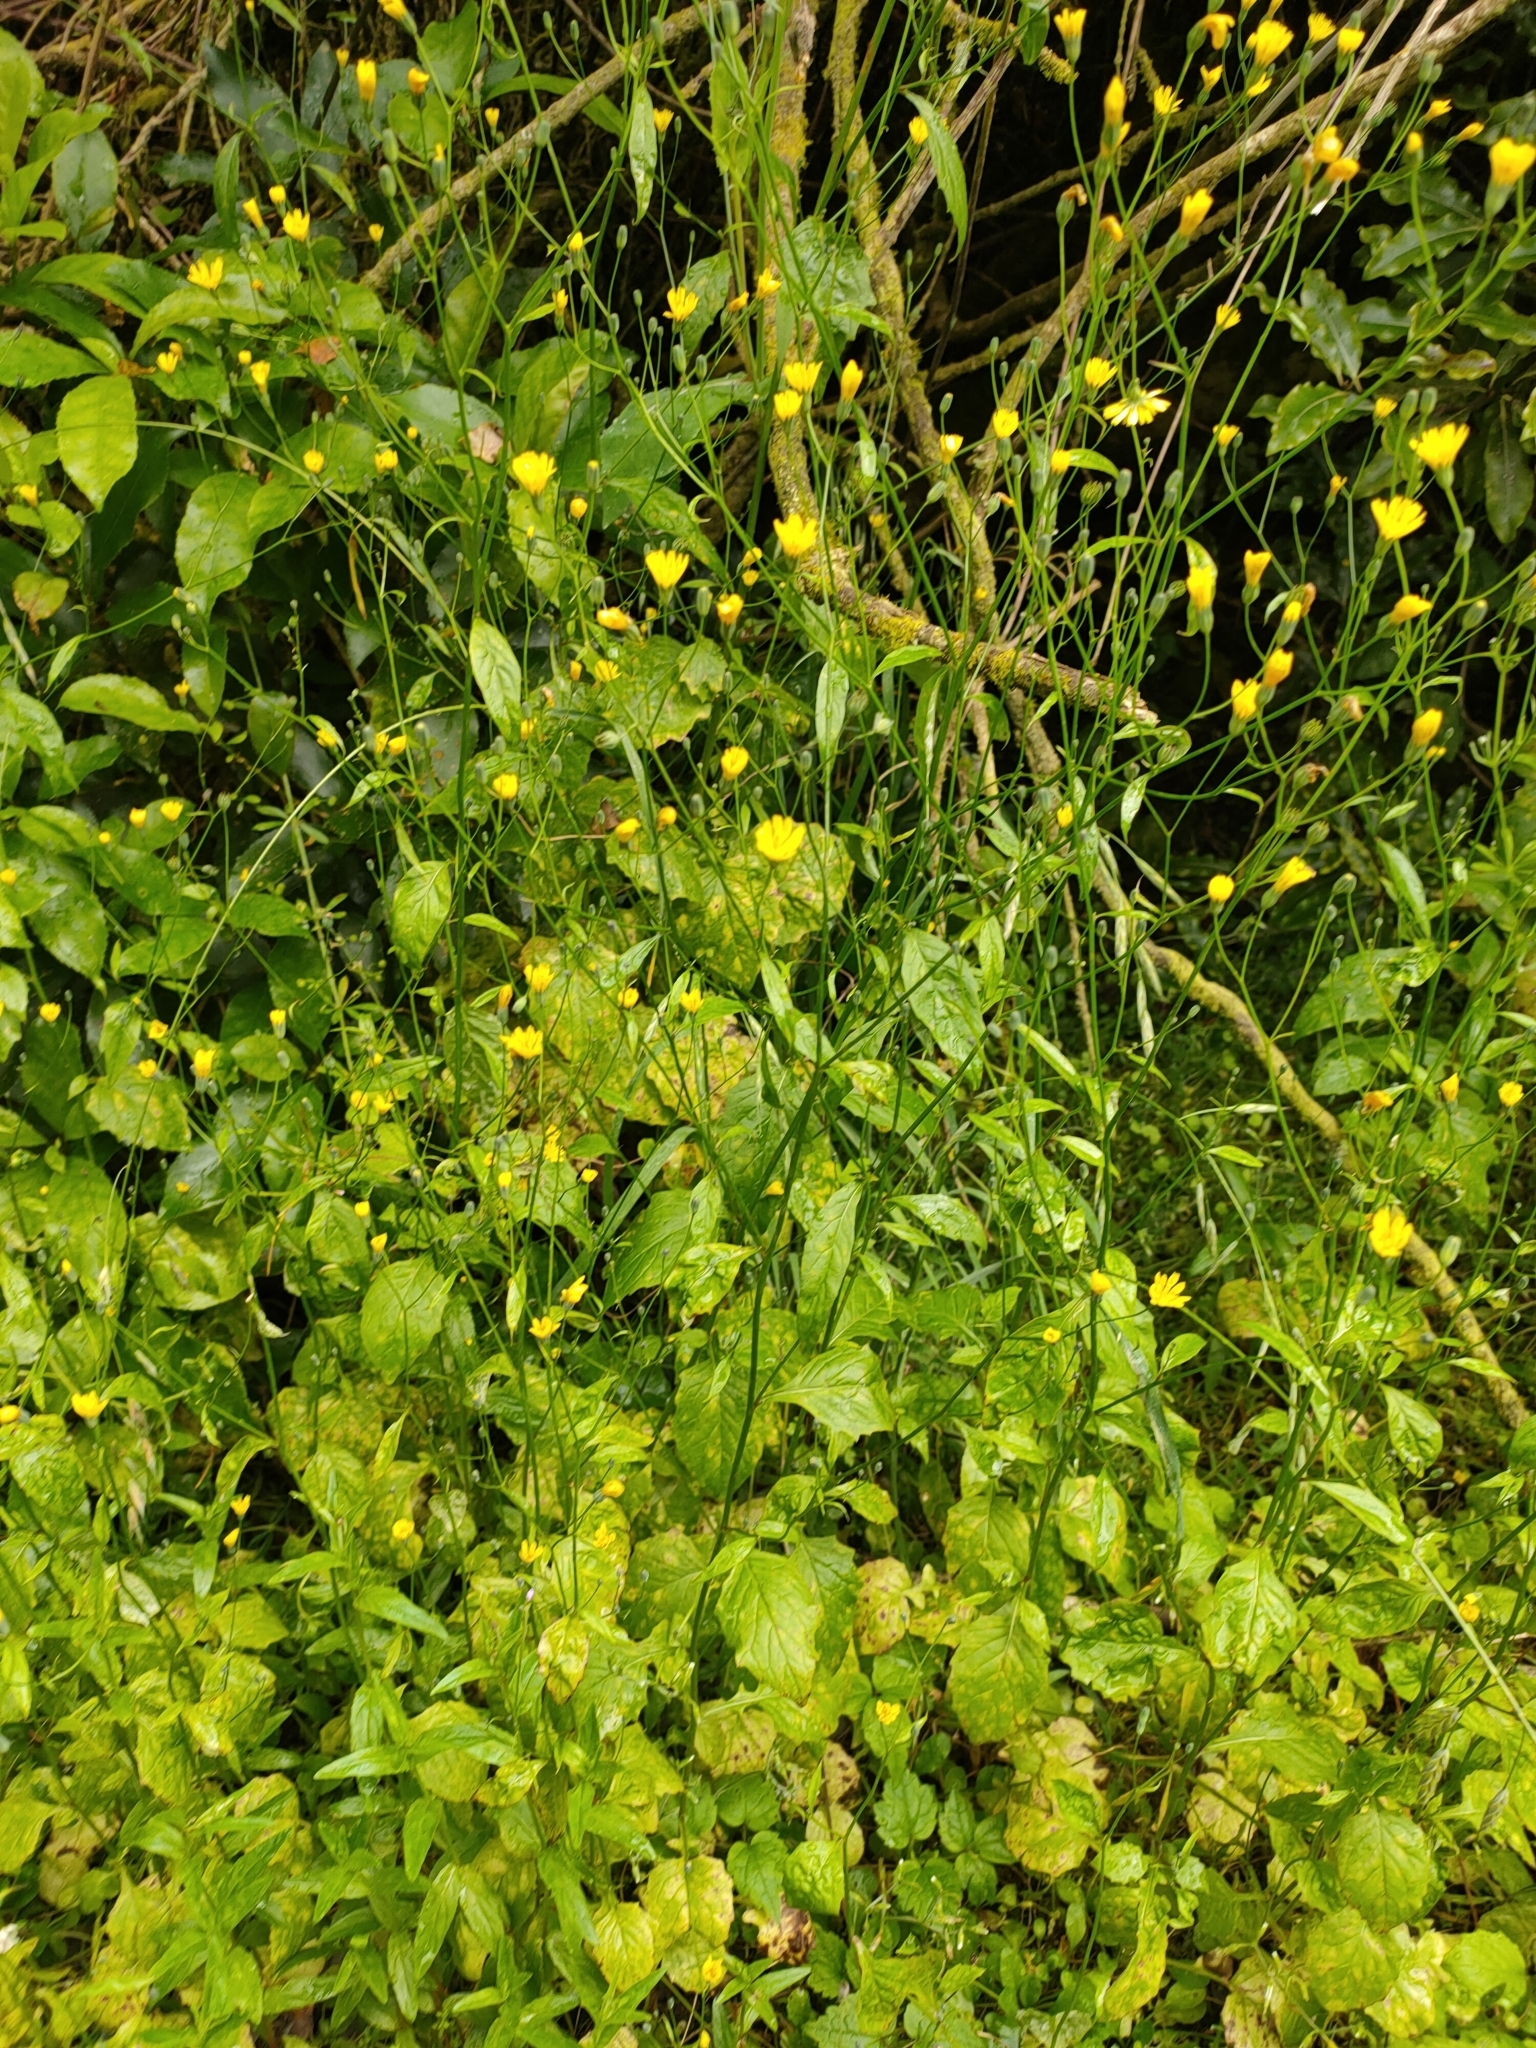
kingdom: Plantae
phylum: Tracheophyta
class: Magnoliopsida
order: Asterales
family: Asteraceae
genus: Lapsana
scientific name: Lapsana communis
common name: Nipplewort
